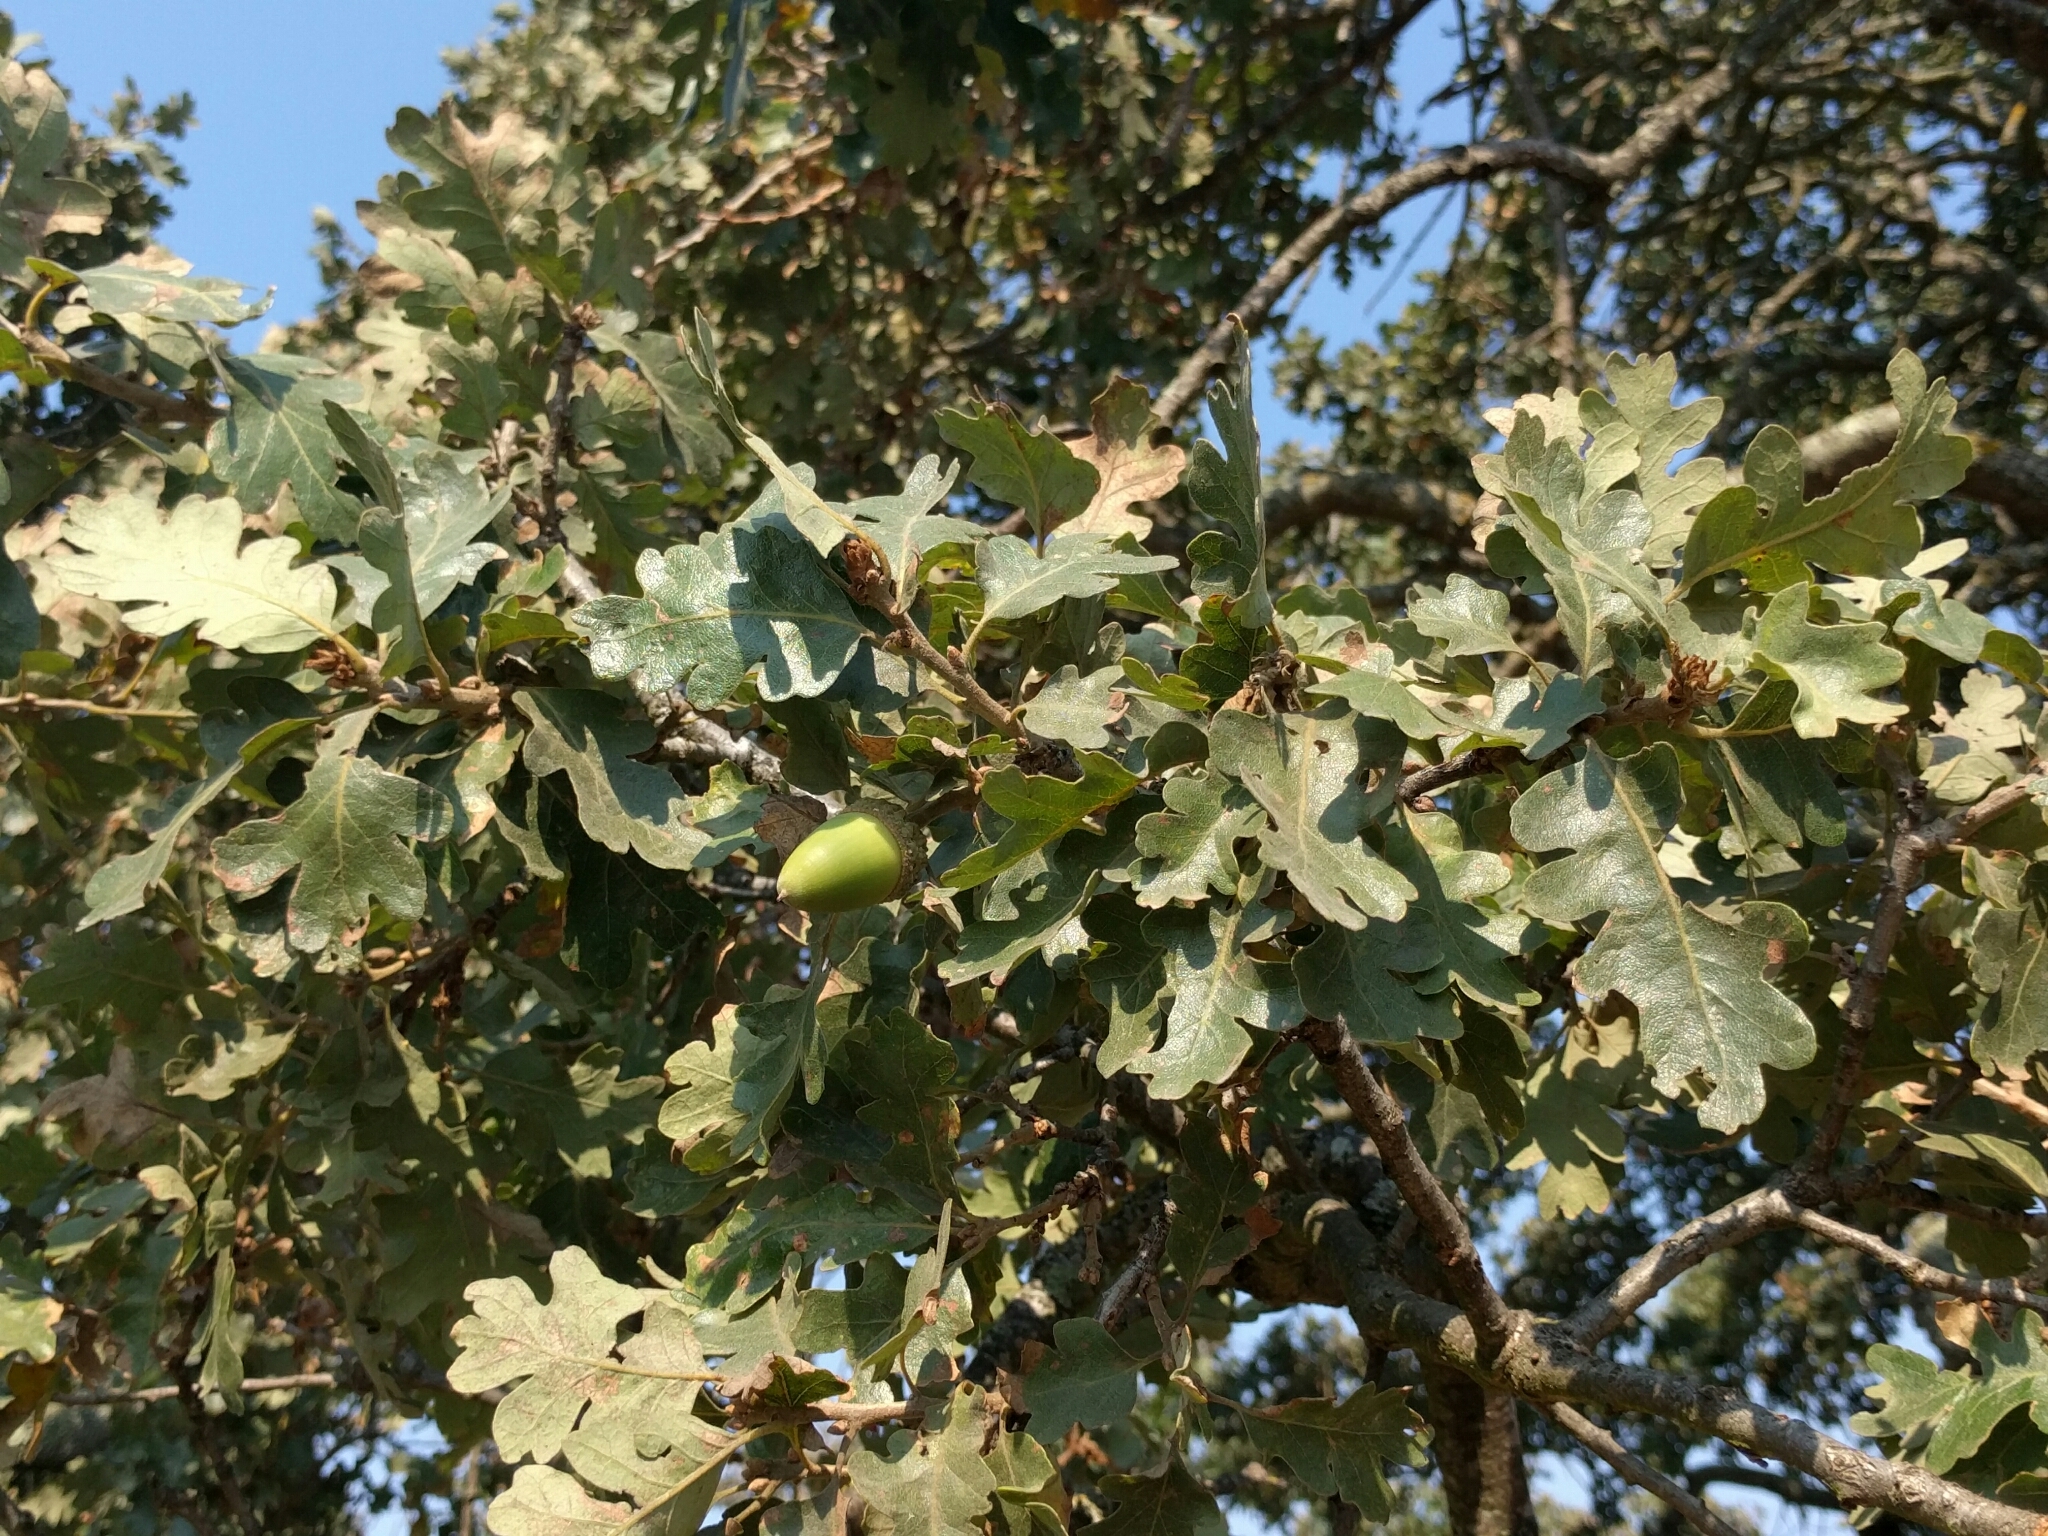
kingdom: Plantae
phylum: Tracheophyta
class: Magnoliopsida
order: Fagales
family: Fagaceae
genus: Quercus
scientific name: Quercus lobata
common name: Valley oak
